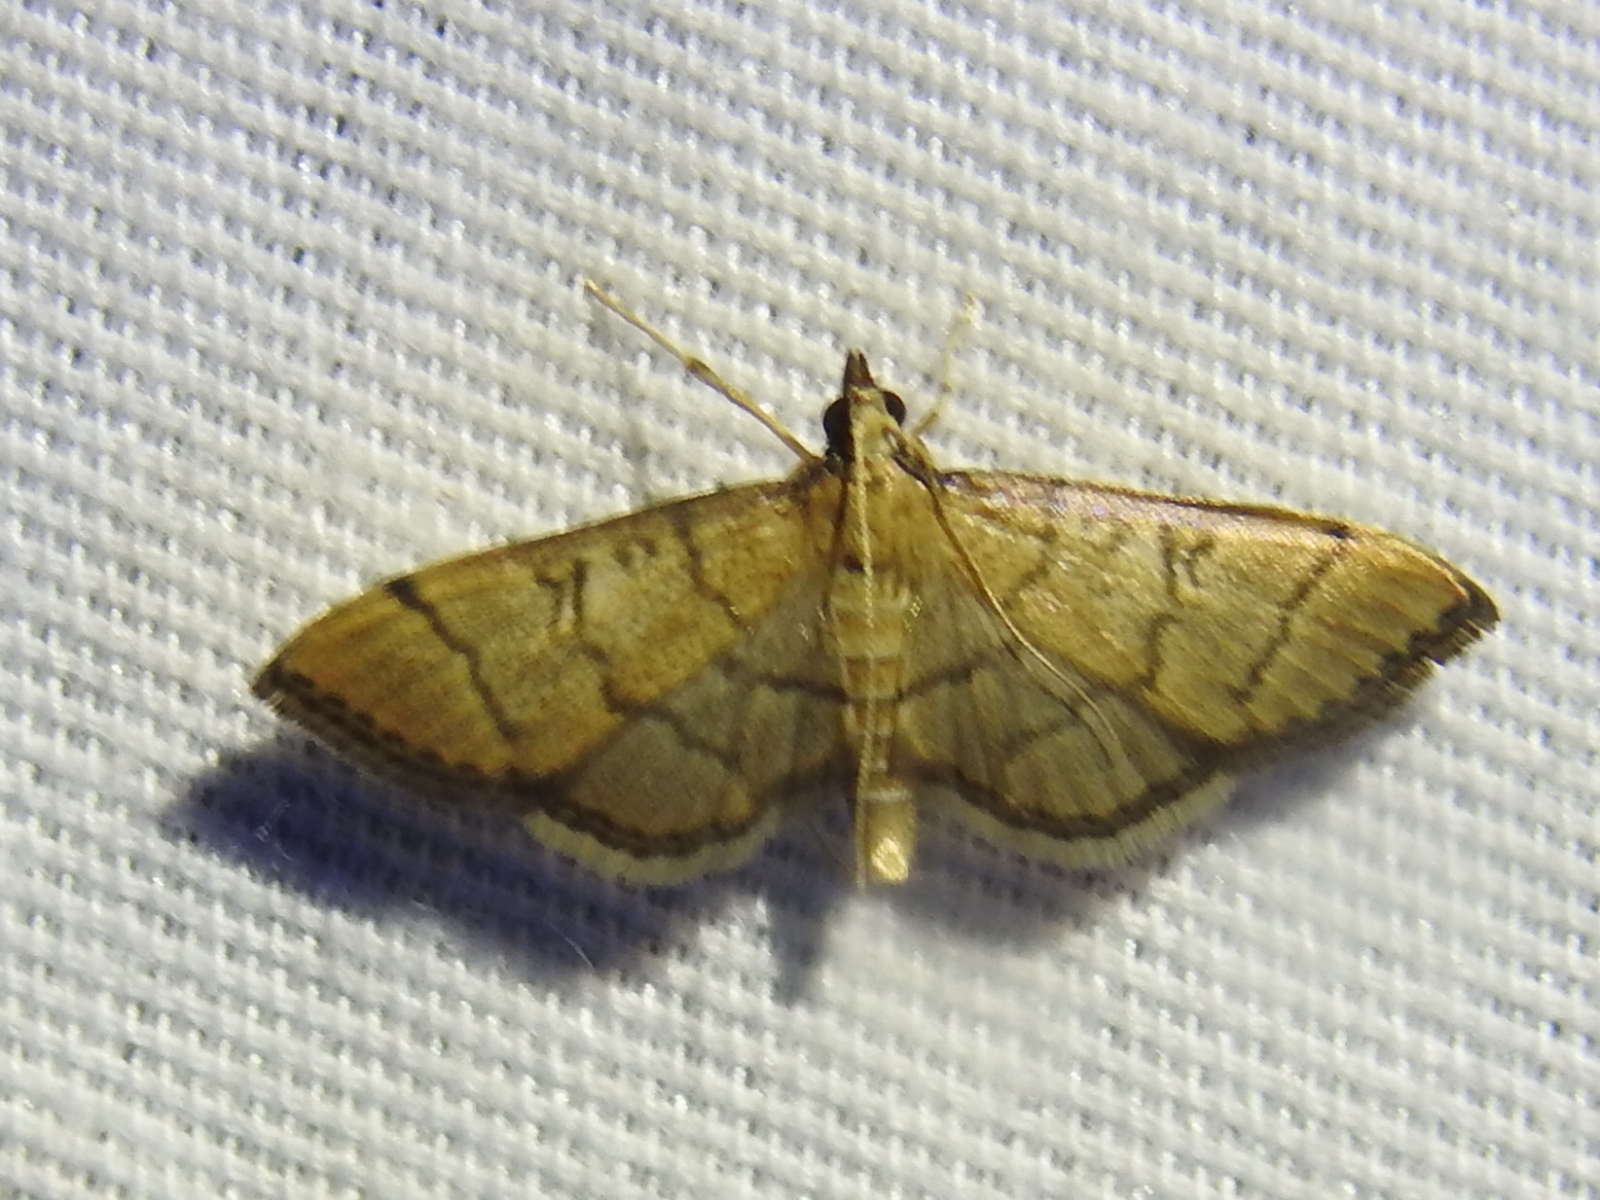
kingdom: Animalia
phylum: Arthropoda
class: Insecta
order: Lepidoptera
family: Crambidae
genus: Lamprosema
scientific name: Lamprosema Blepharomastix ranalis
